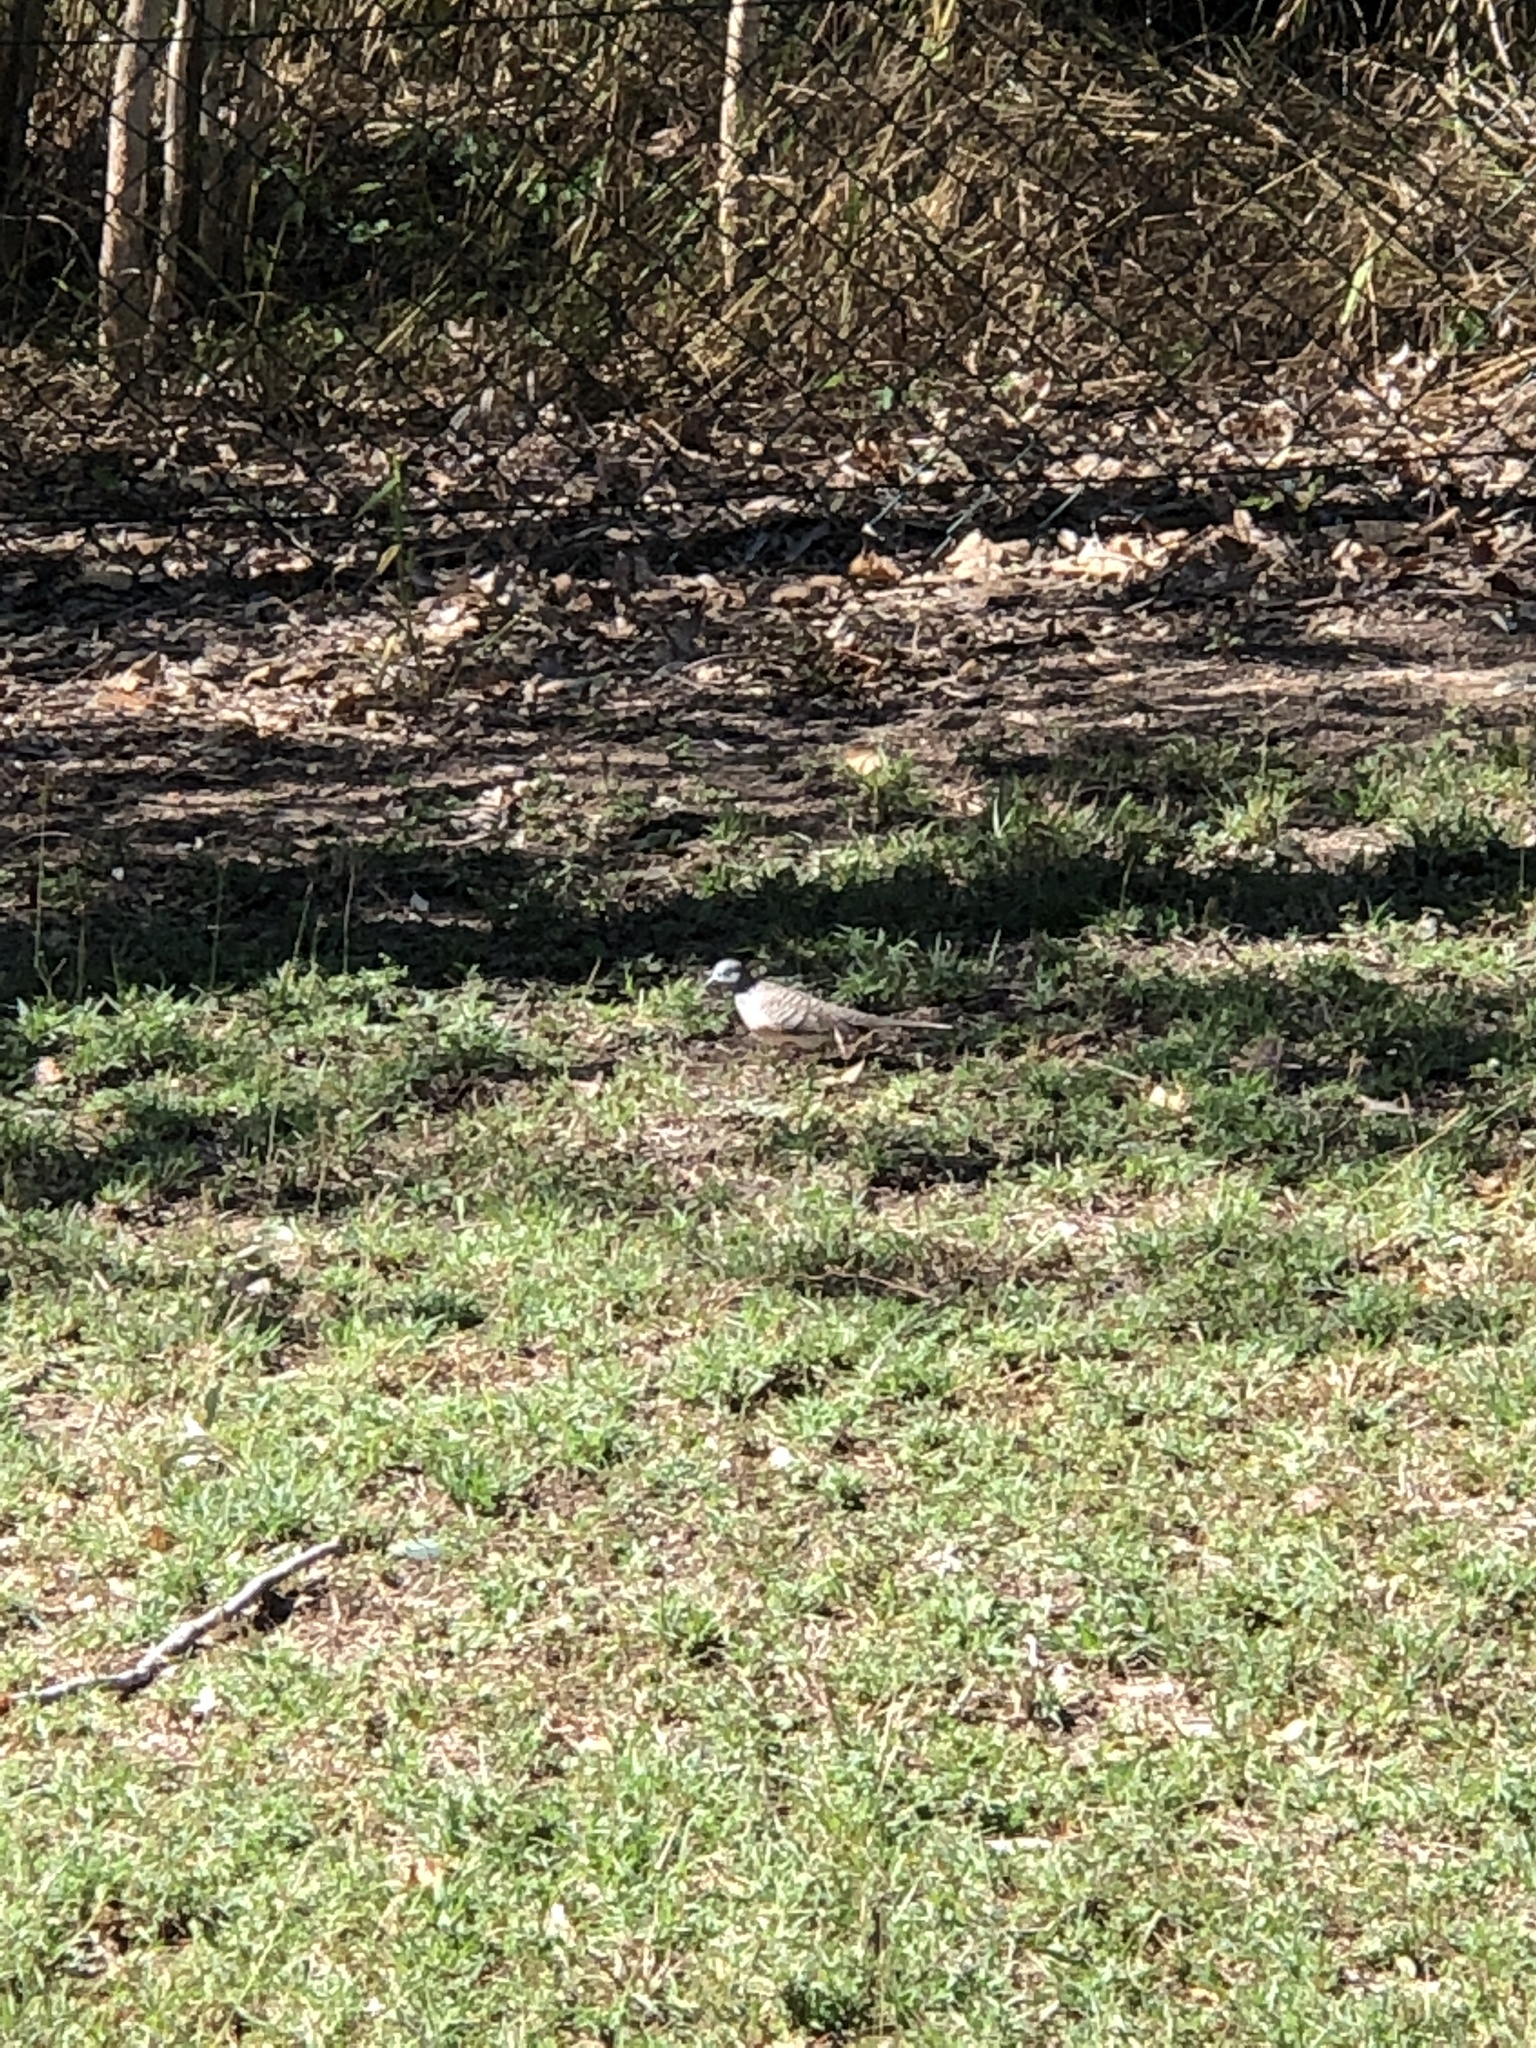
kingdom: Animalia
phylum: Chordata
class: Aves
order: Columbiformes
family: Columbidae
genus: Geopelia
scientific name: Geopelia placida
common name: Peaceful dove
